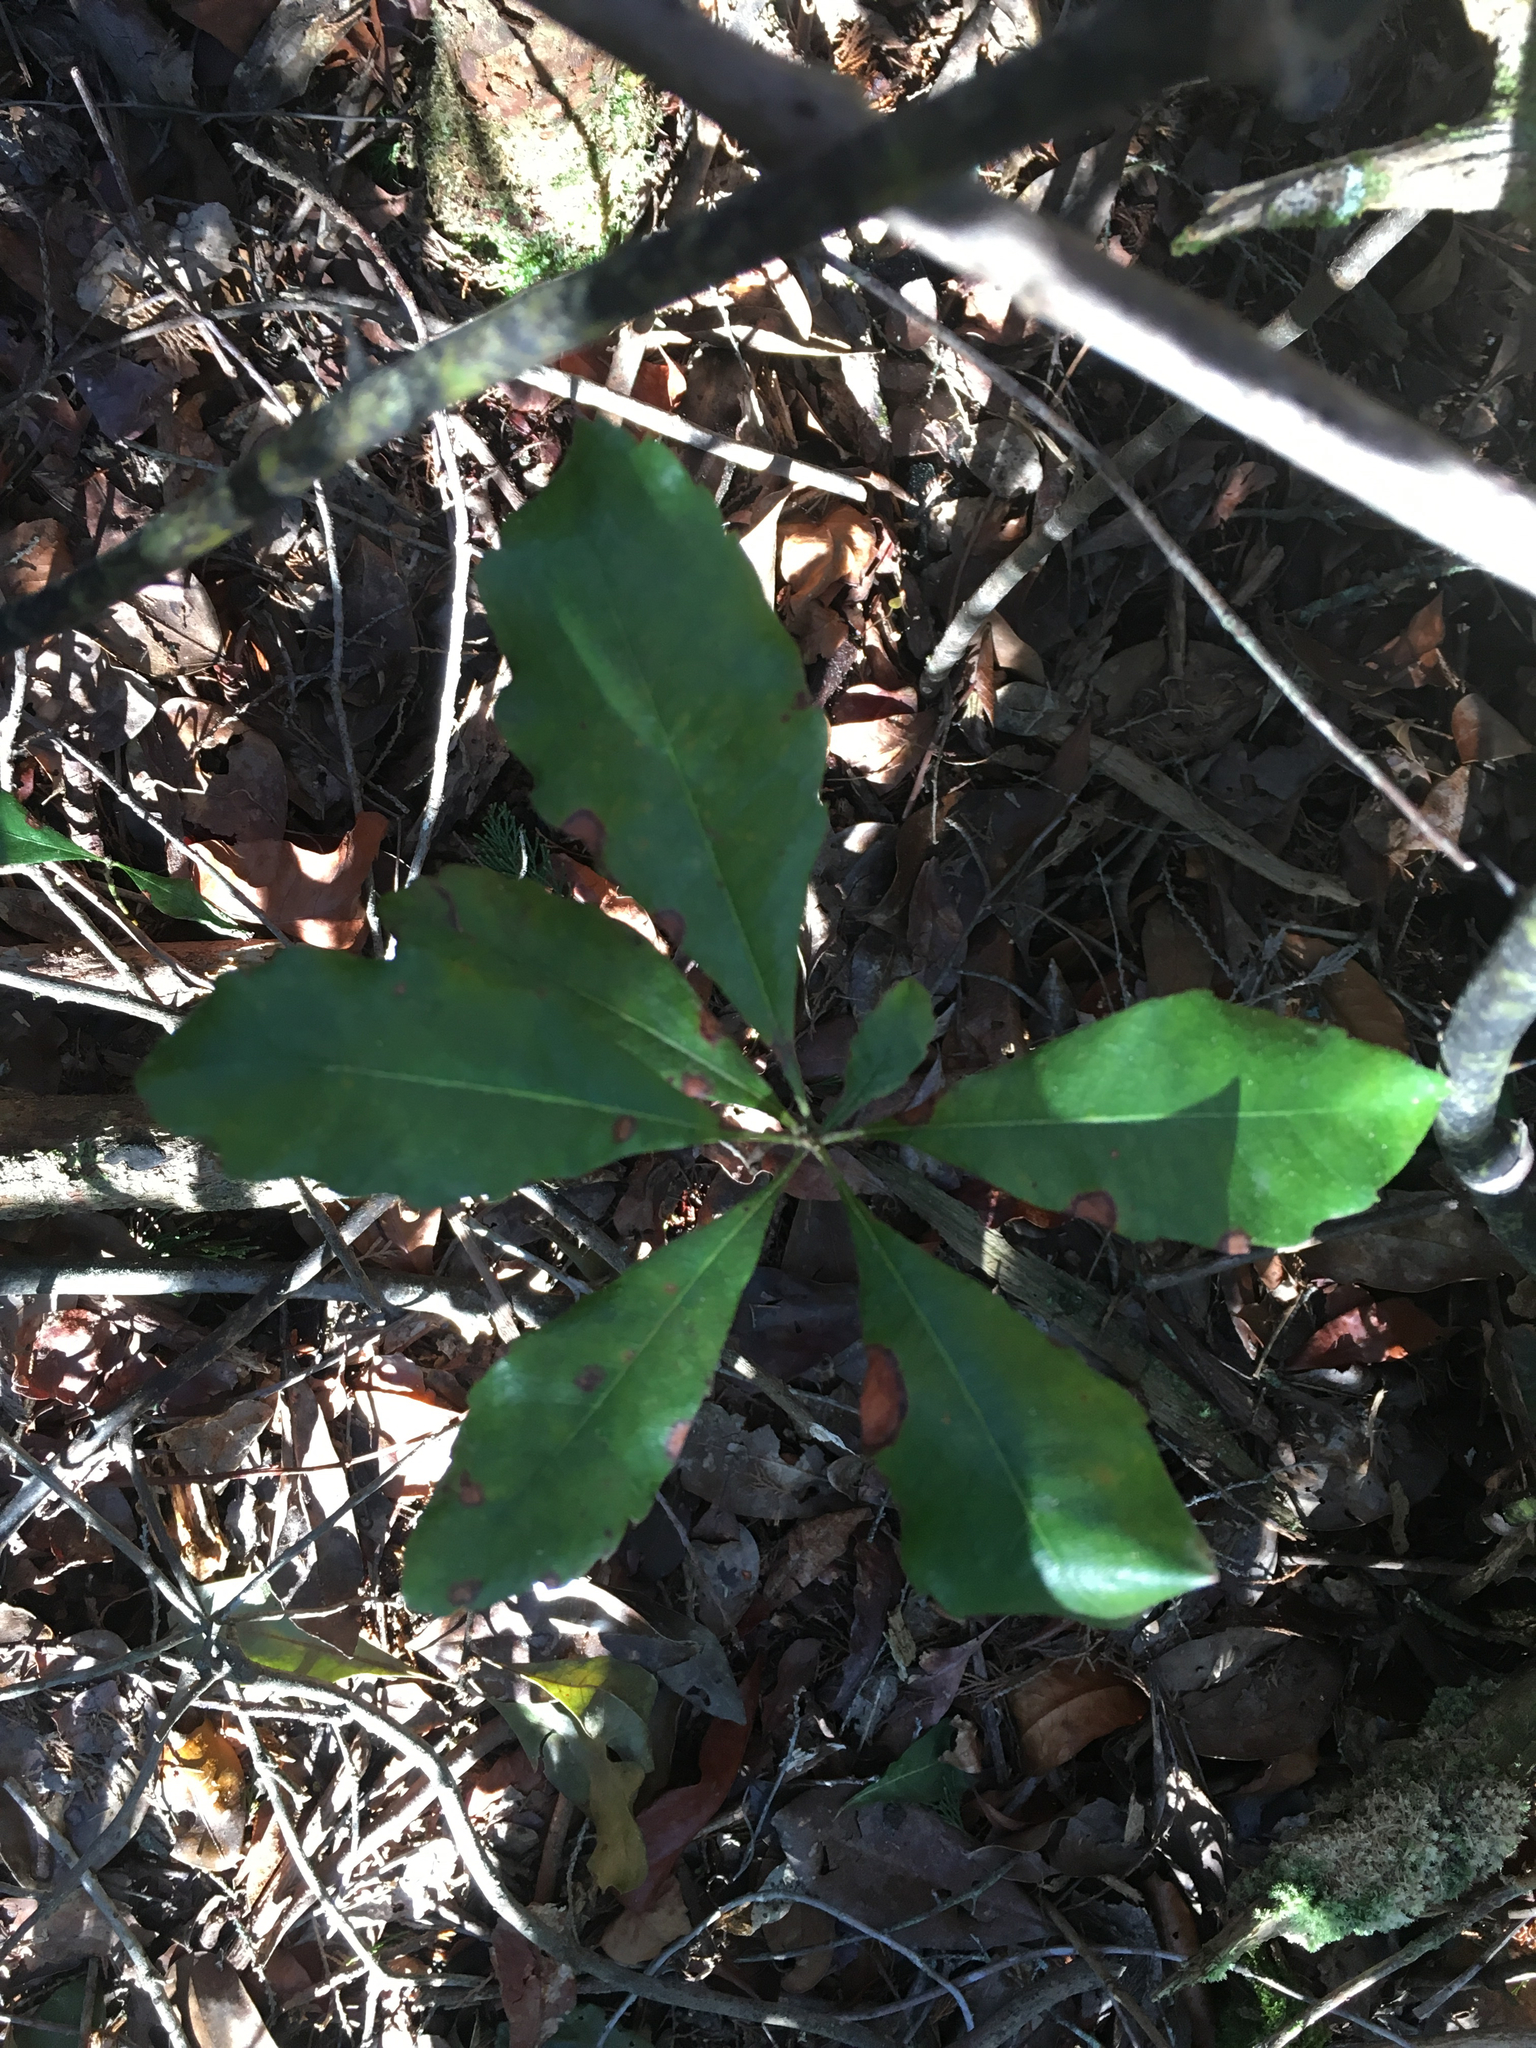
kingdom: Plantae
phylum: Tracheophyta
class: Magnoliopsida
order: Fagales
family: Myricaceae
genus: Morella
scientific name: Morella caroliniensis
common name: Evergreen bayberry
